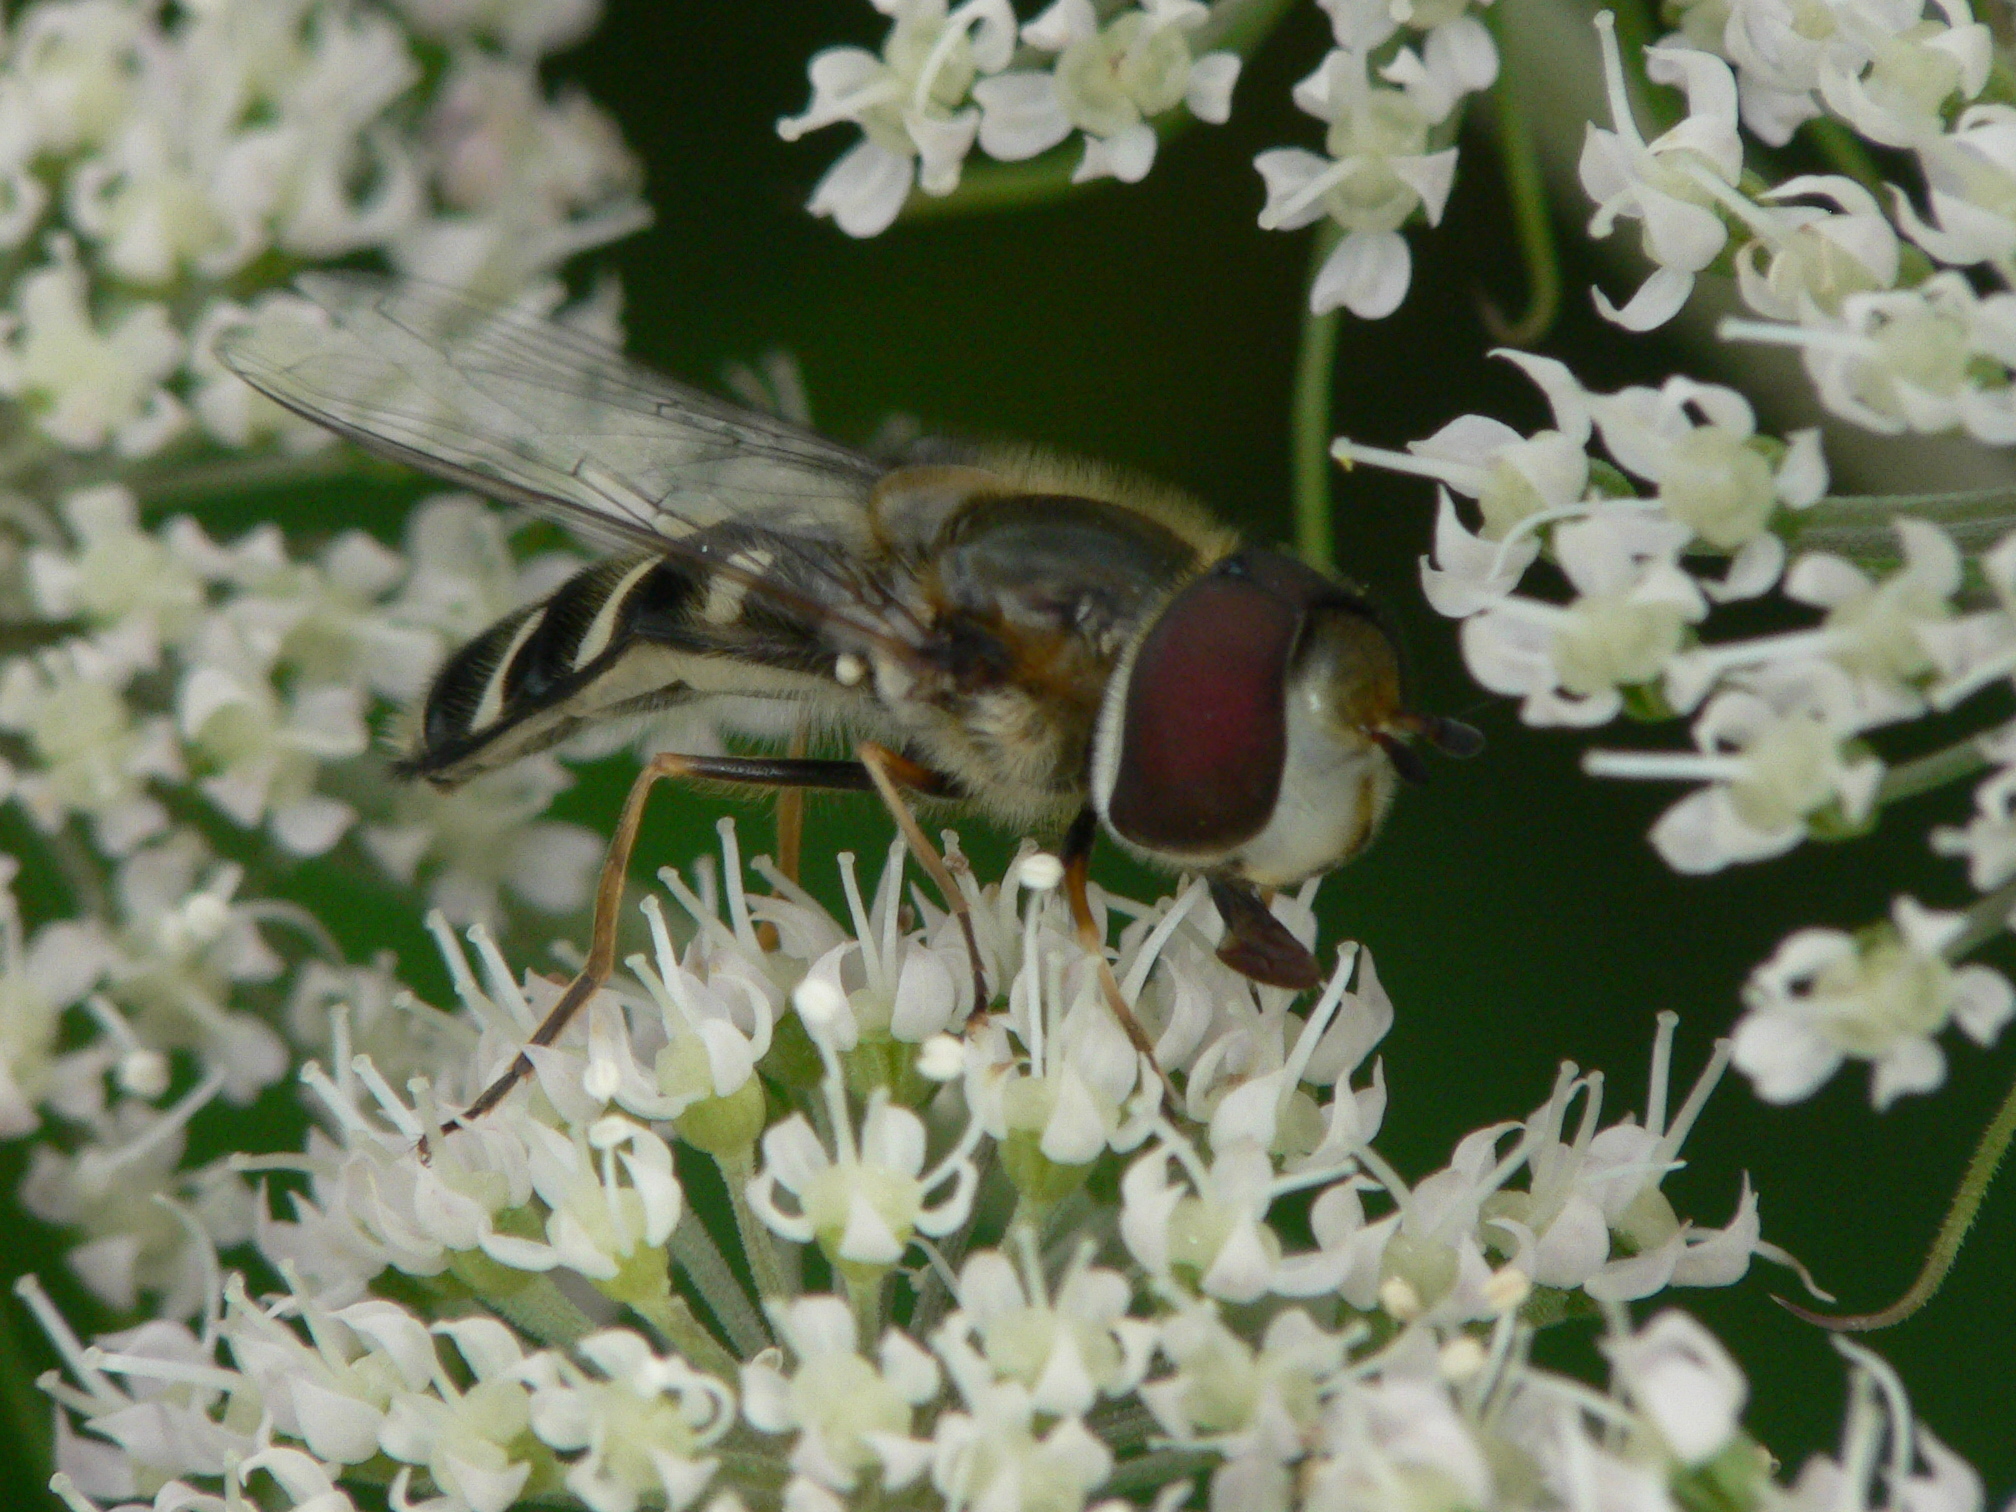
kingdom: Animalia
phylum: Arthropoda
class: Insecta
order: Diptera
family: Syrphidae
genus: Scaeva
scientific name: Scaeva pyrastri
